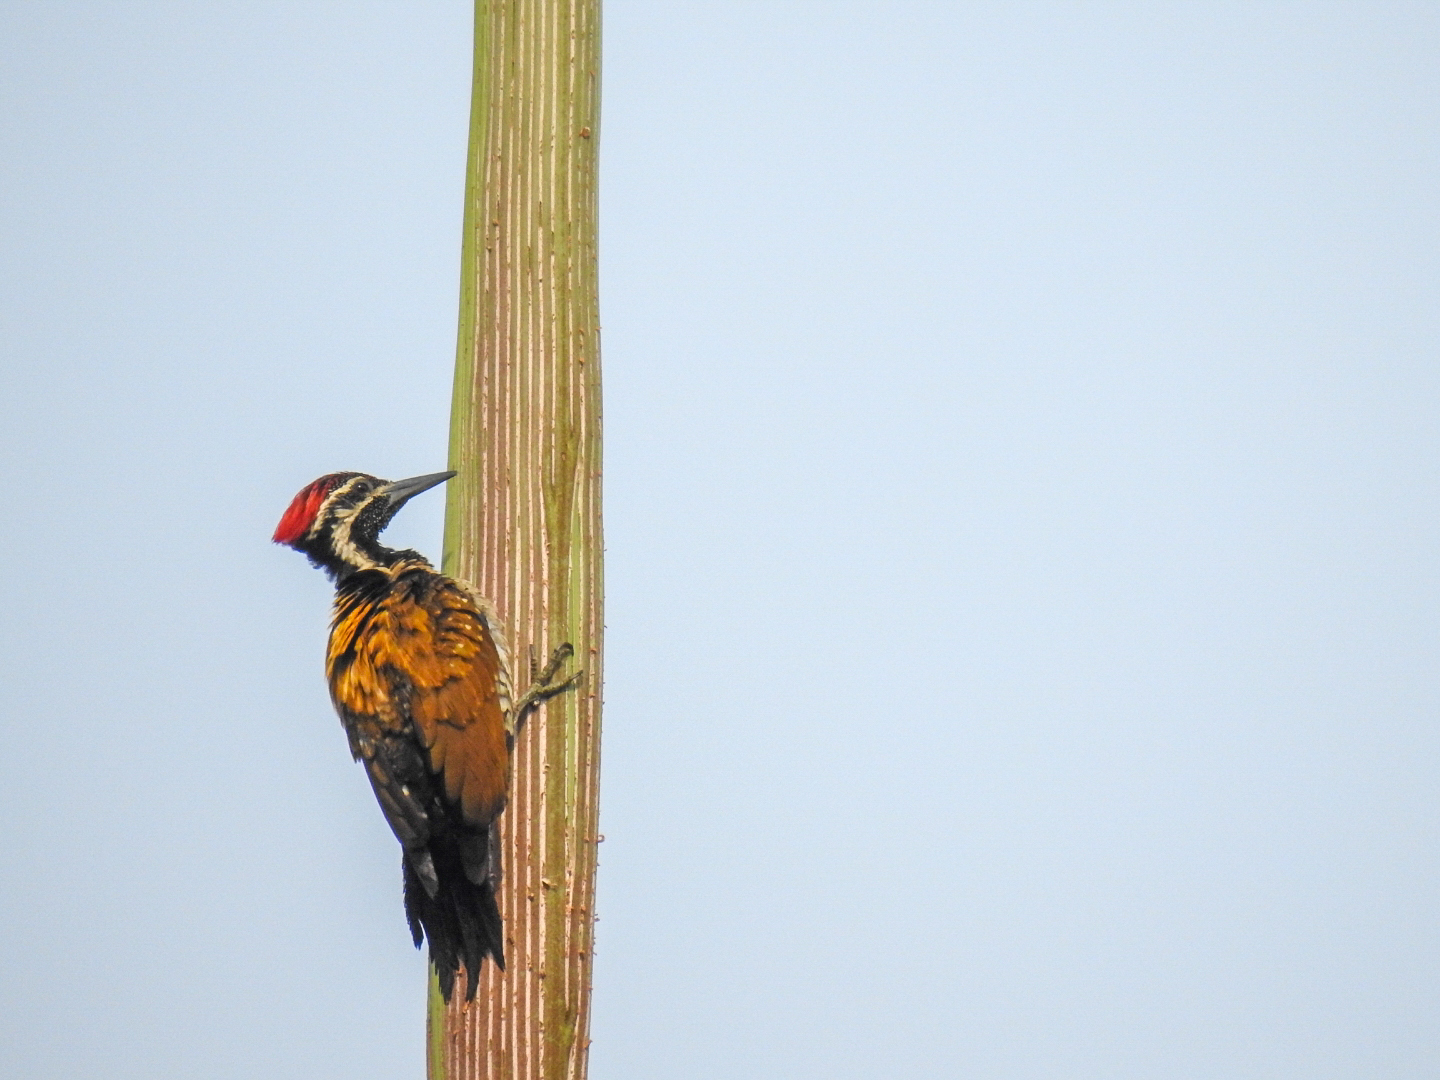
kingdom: Animalia
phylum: Chordata
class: Aves
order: Piciformes
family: Picidae
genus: Dinopium
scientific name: Dinopium benghalense
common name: Black-rumped flameback
